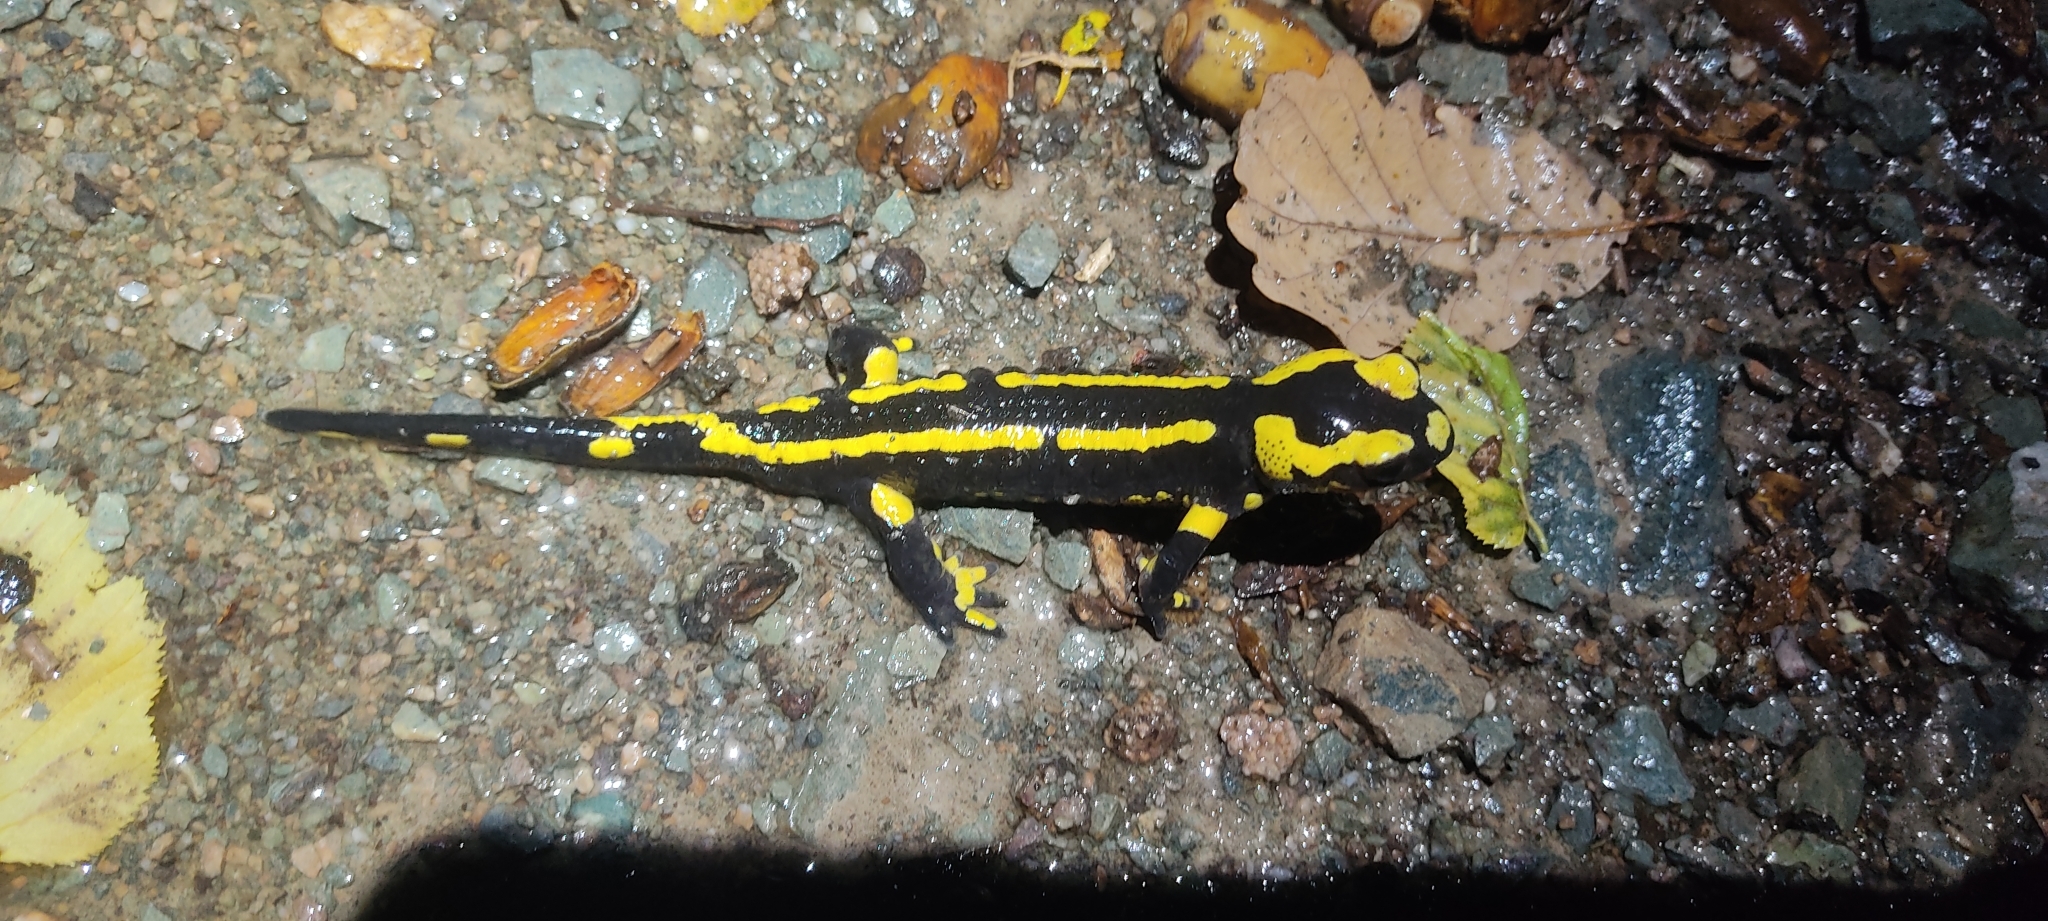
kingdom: Animalia
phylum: Chordata
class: Amphibia
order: Caudata
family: Salamandridae
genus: Salamandra
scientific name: Salamandra salamandra
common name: Fire salamander
